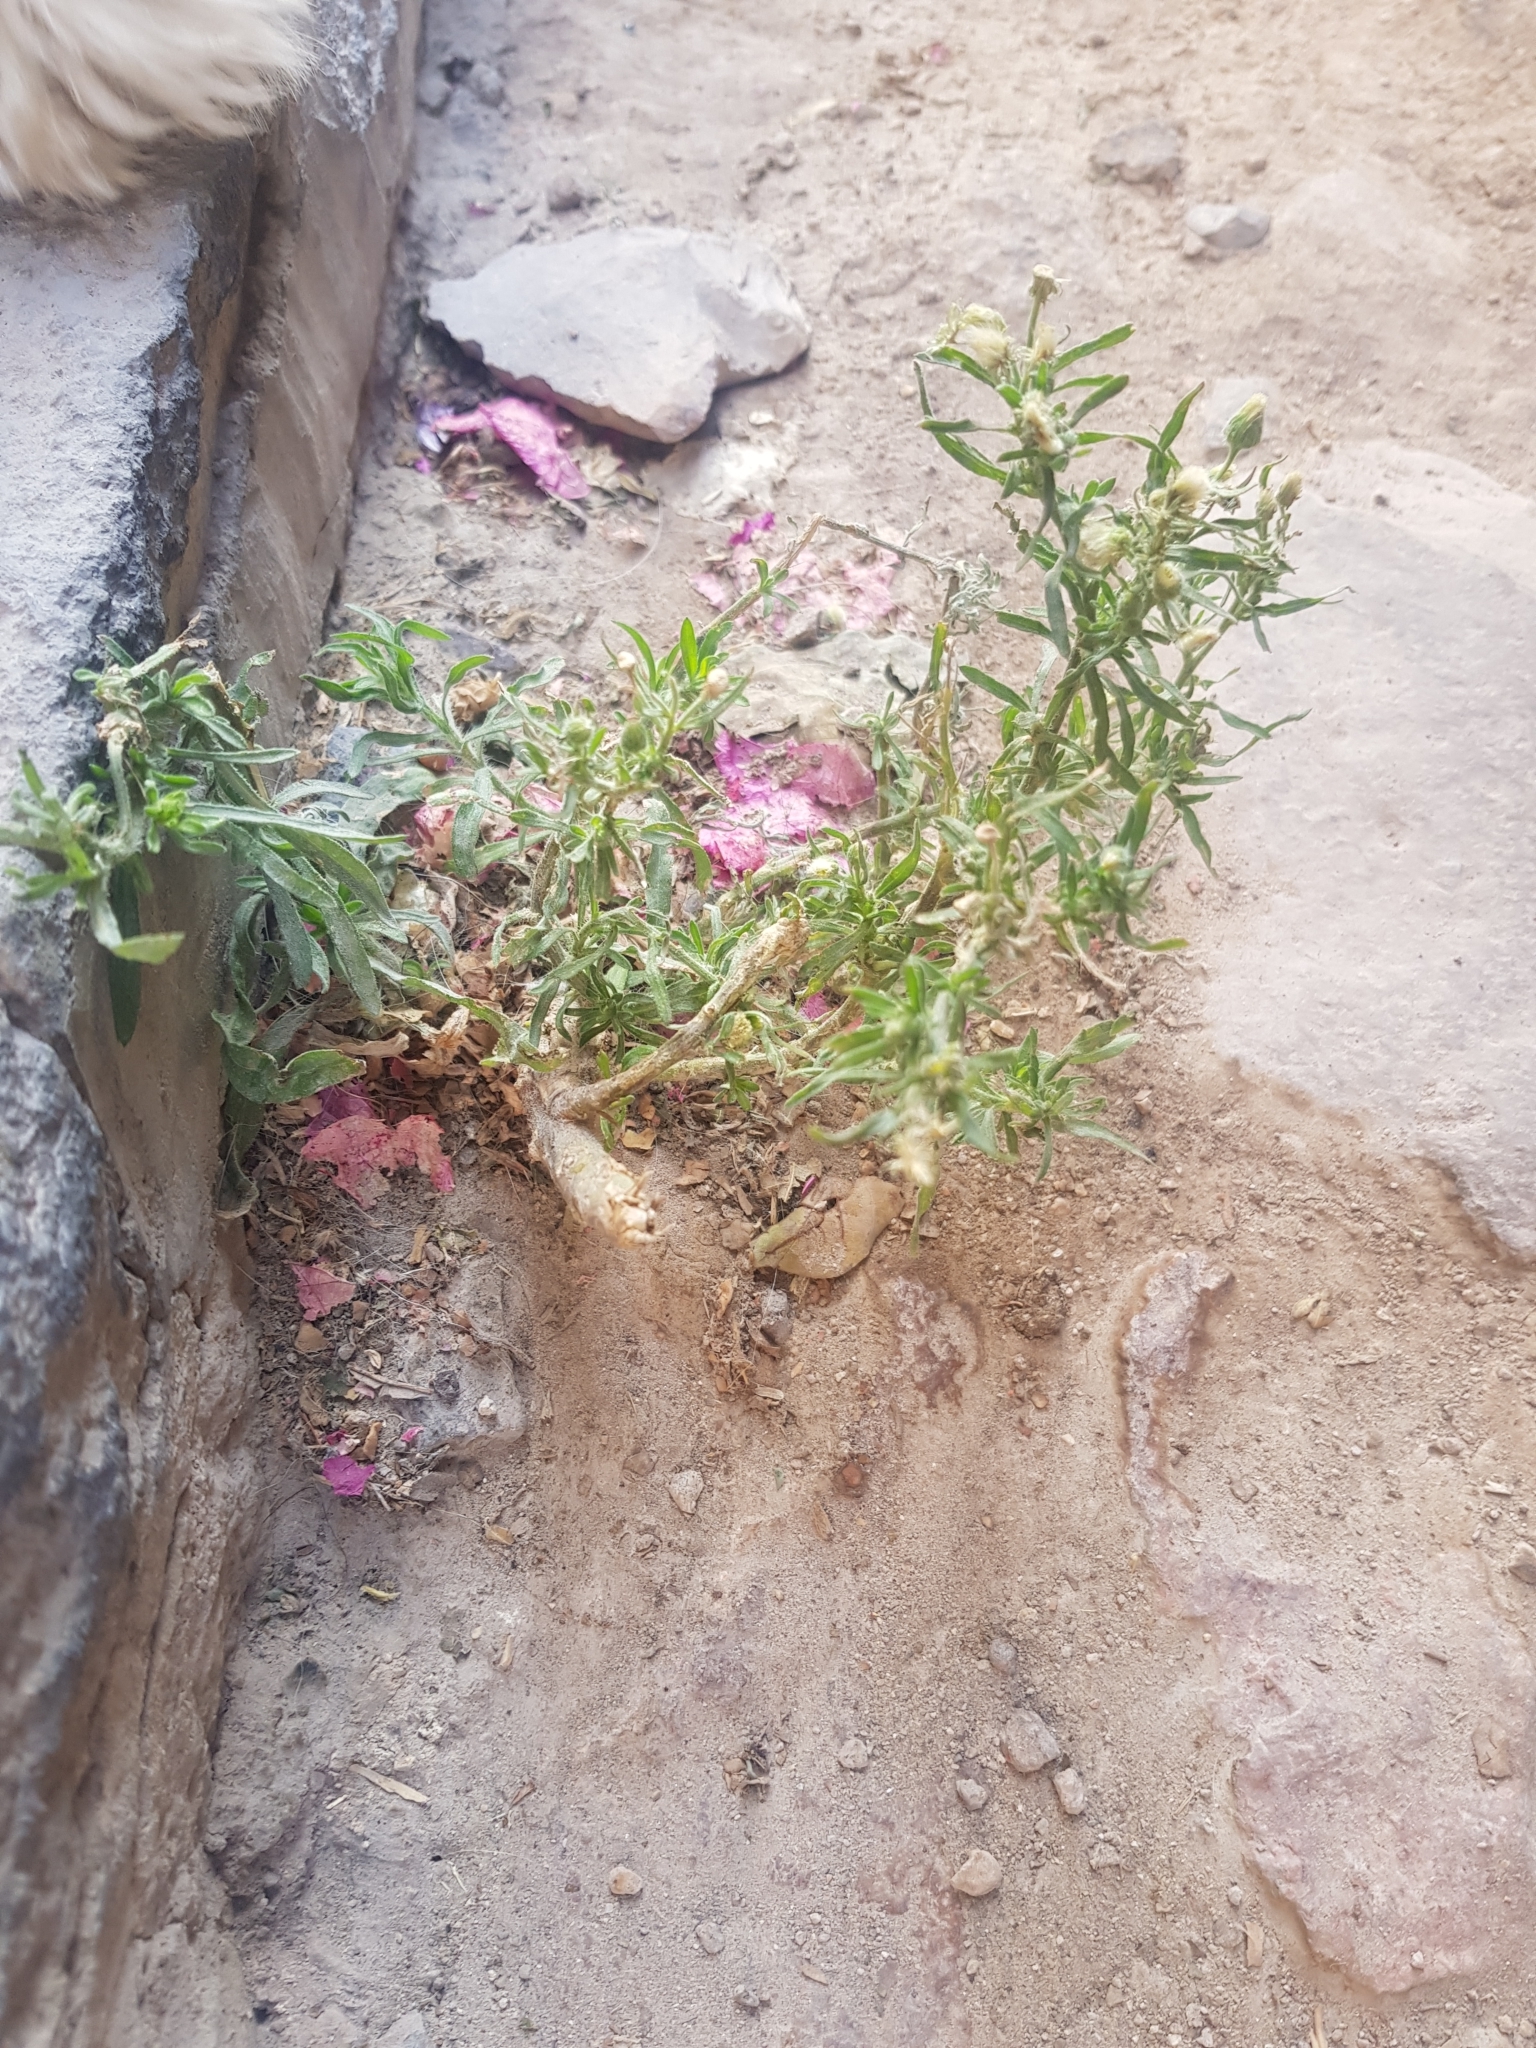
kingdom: Plantae
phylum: Tracheophyta
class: Magnoliopsida
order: Asterales
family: Asteraceae
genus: Erigeron
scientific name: Erigeron bonariensis
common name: Argentine fleabane
